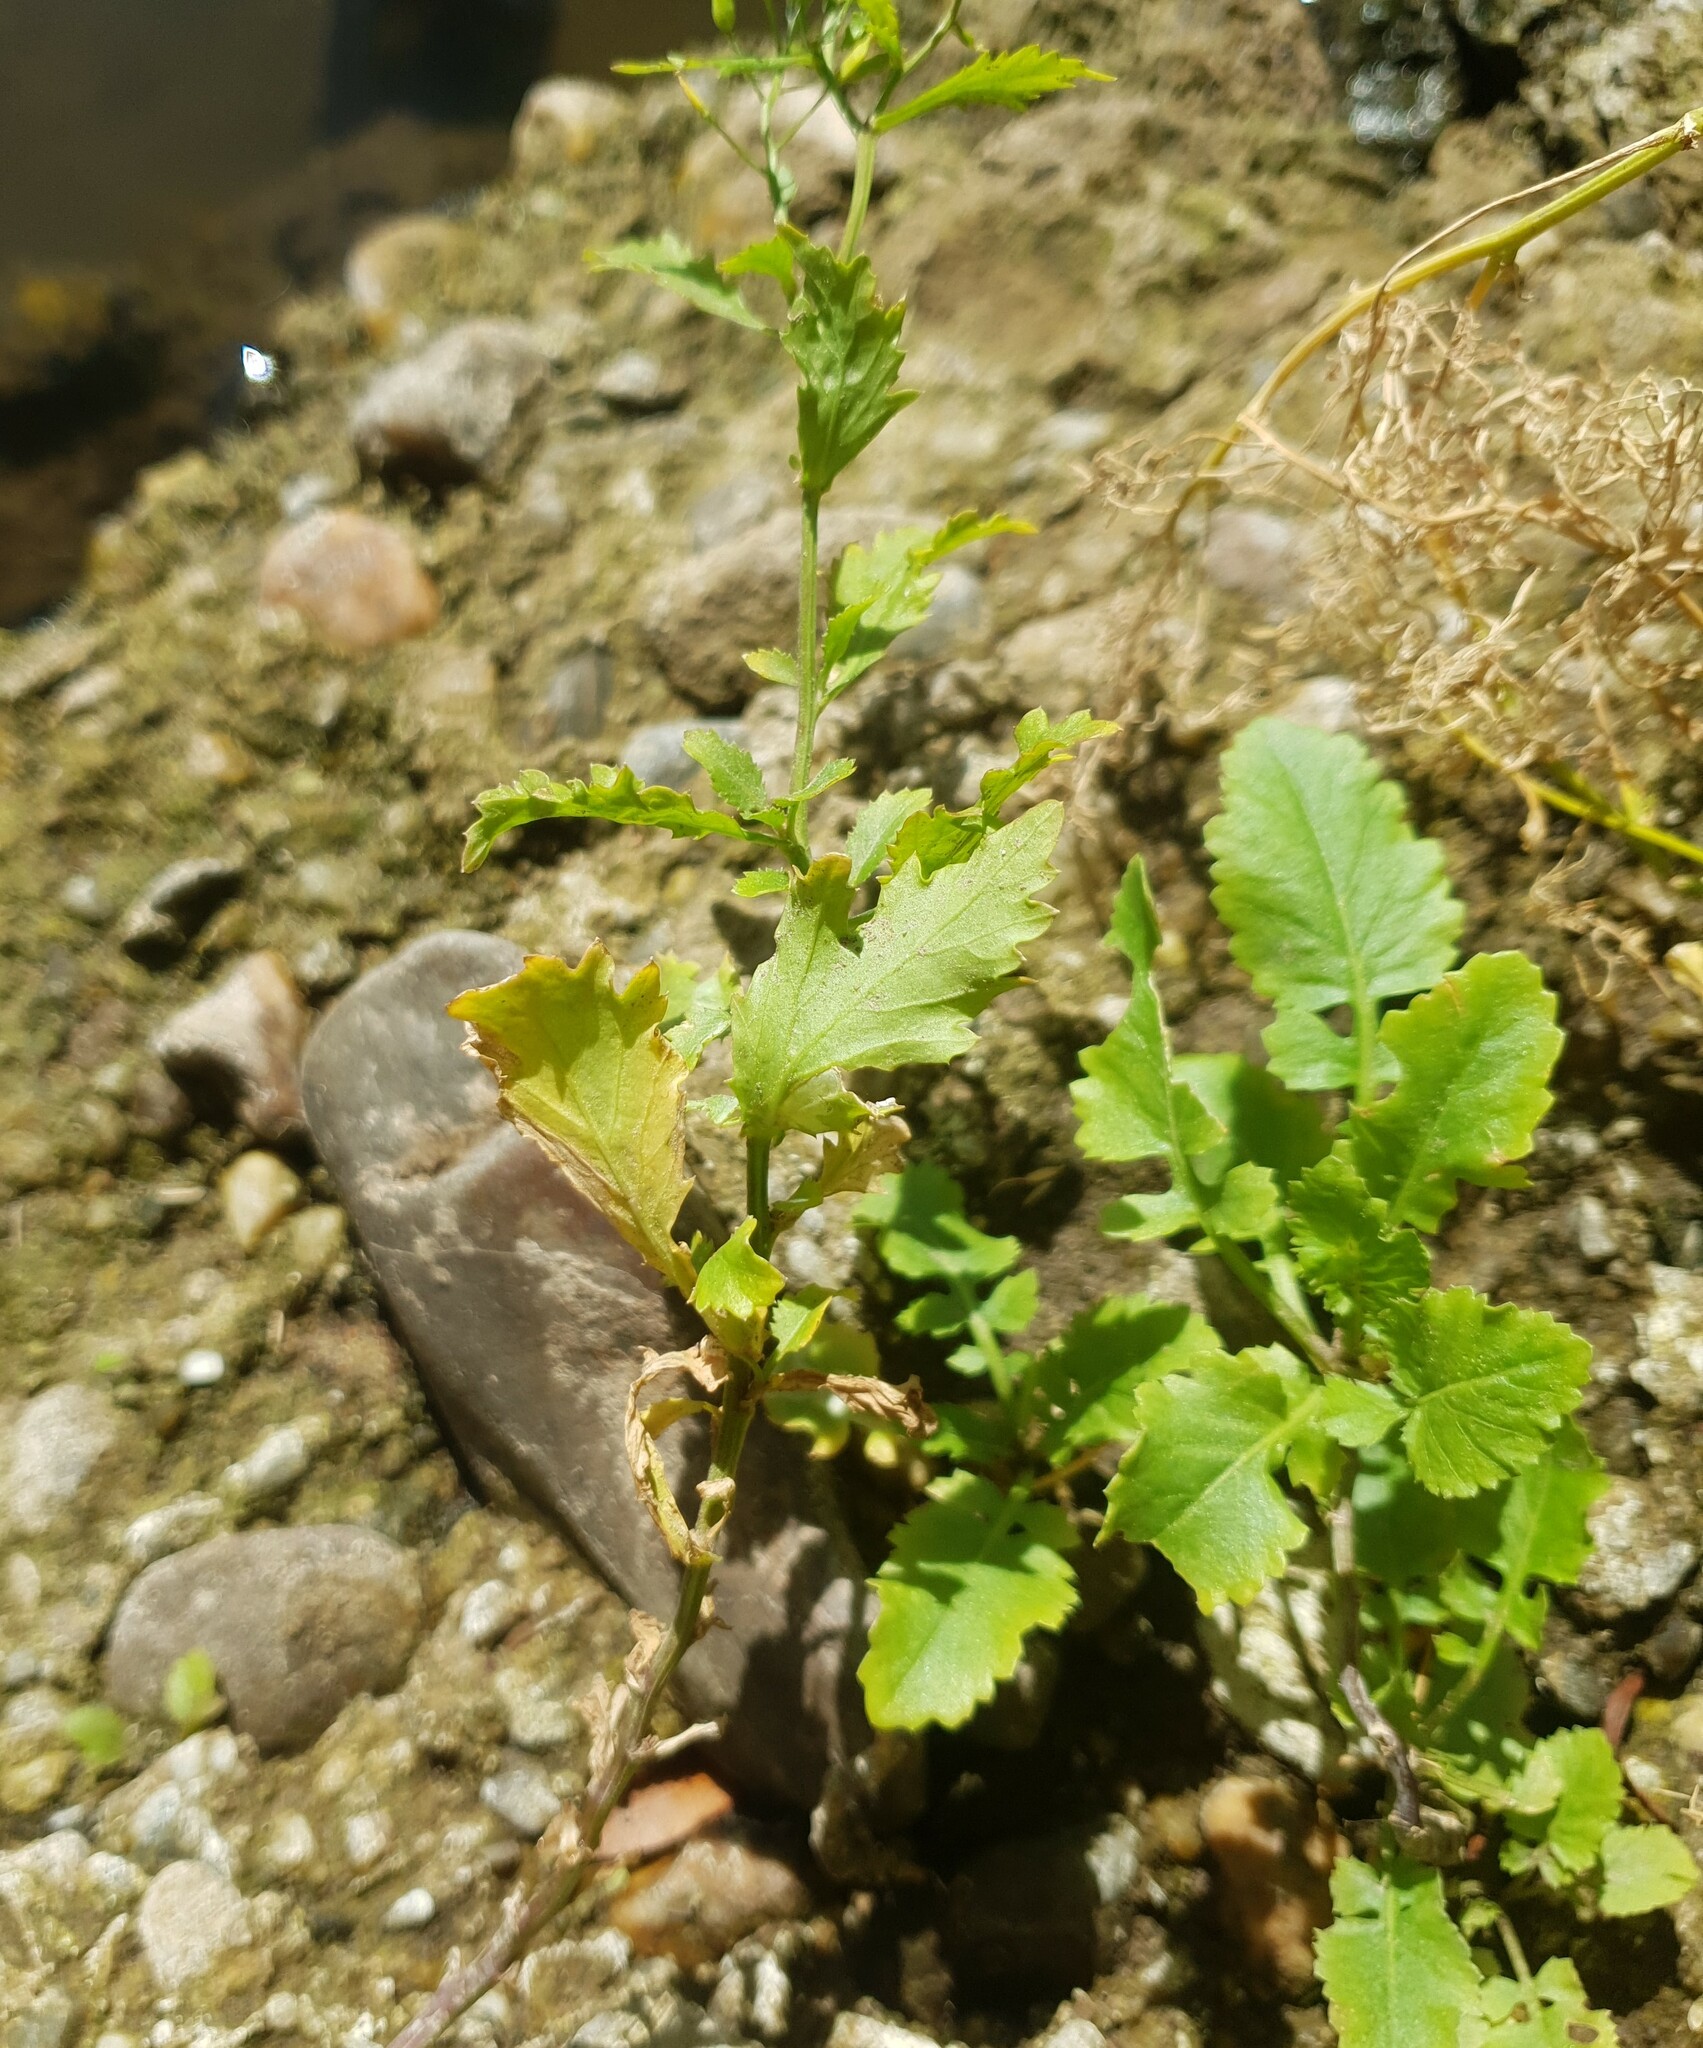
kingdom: Plantae
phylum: Tracheophyta
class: Magnoliopsida
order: Brassicales
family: Brassicaceae
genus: Rorippa
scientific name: Rorippa amphibia
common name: Great yellow-cress
